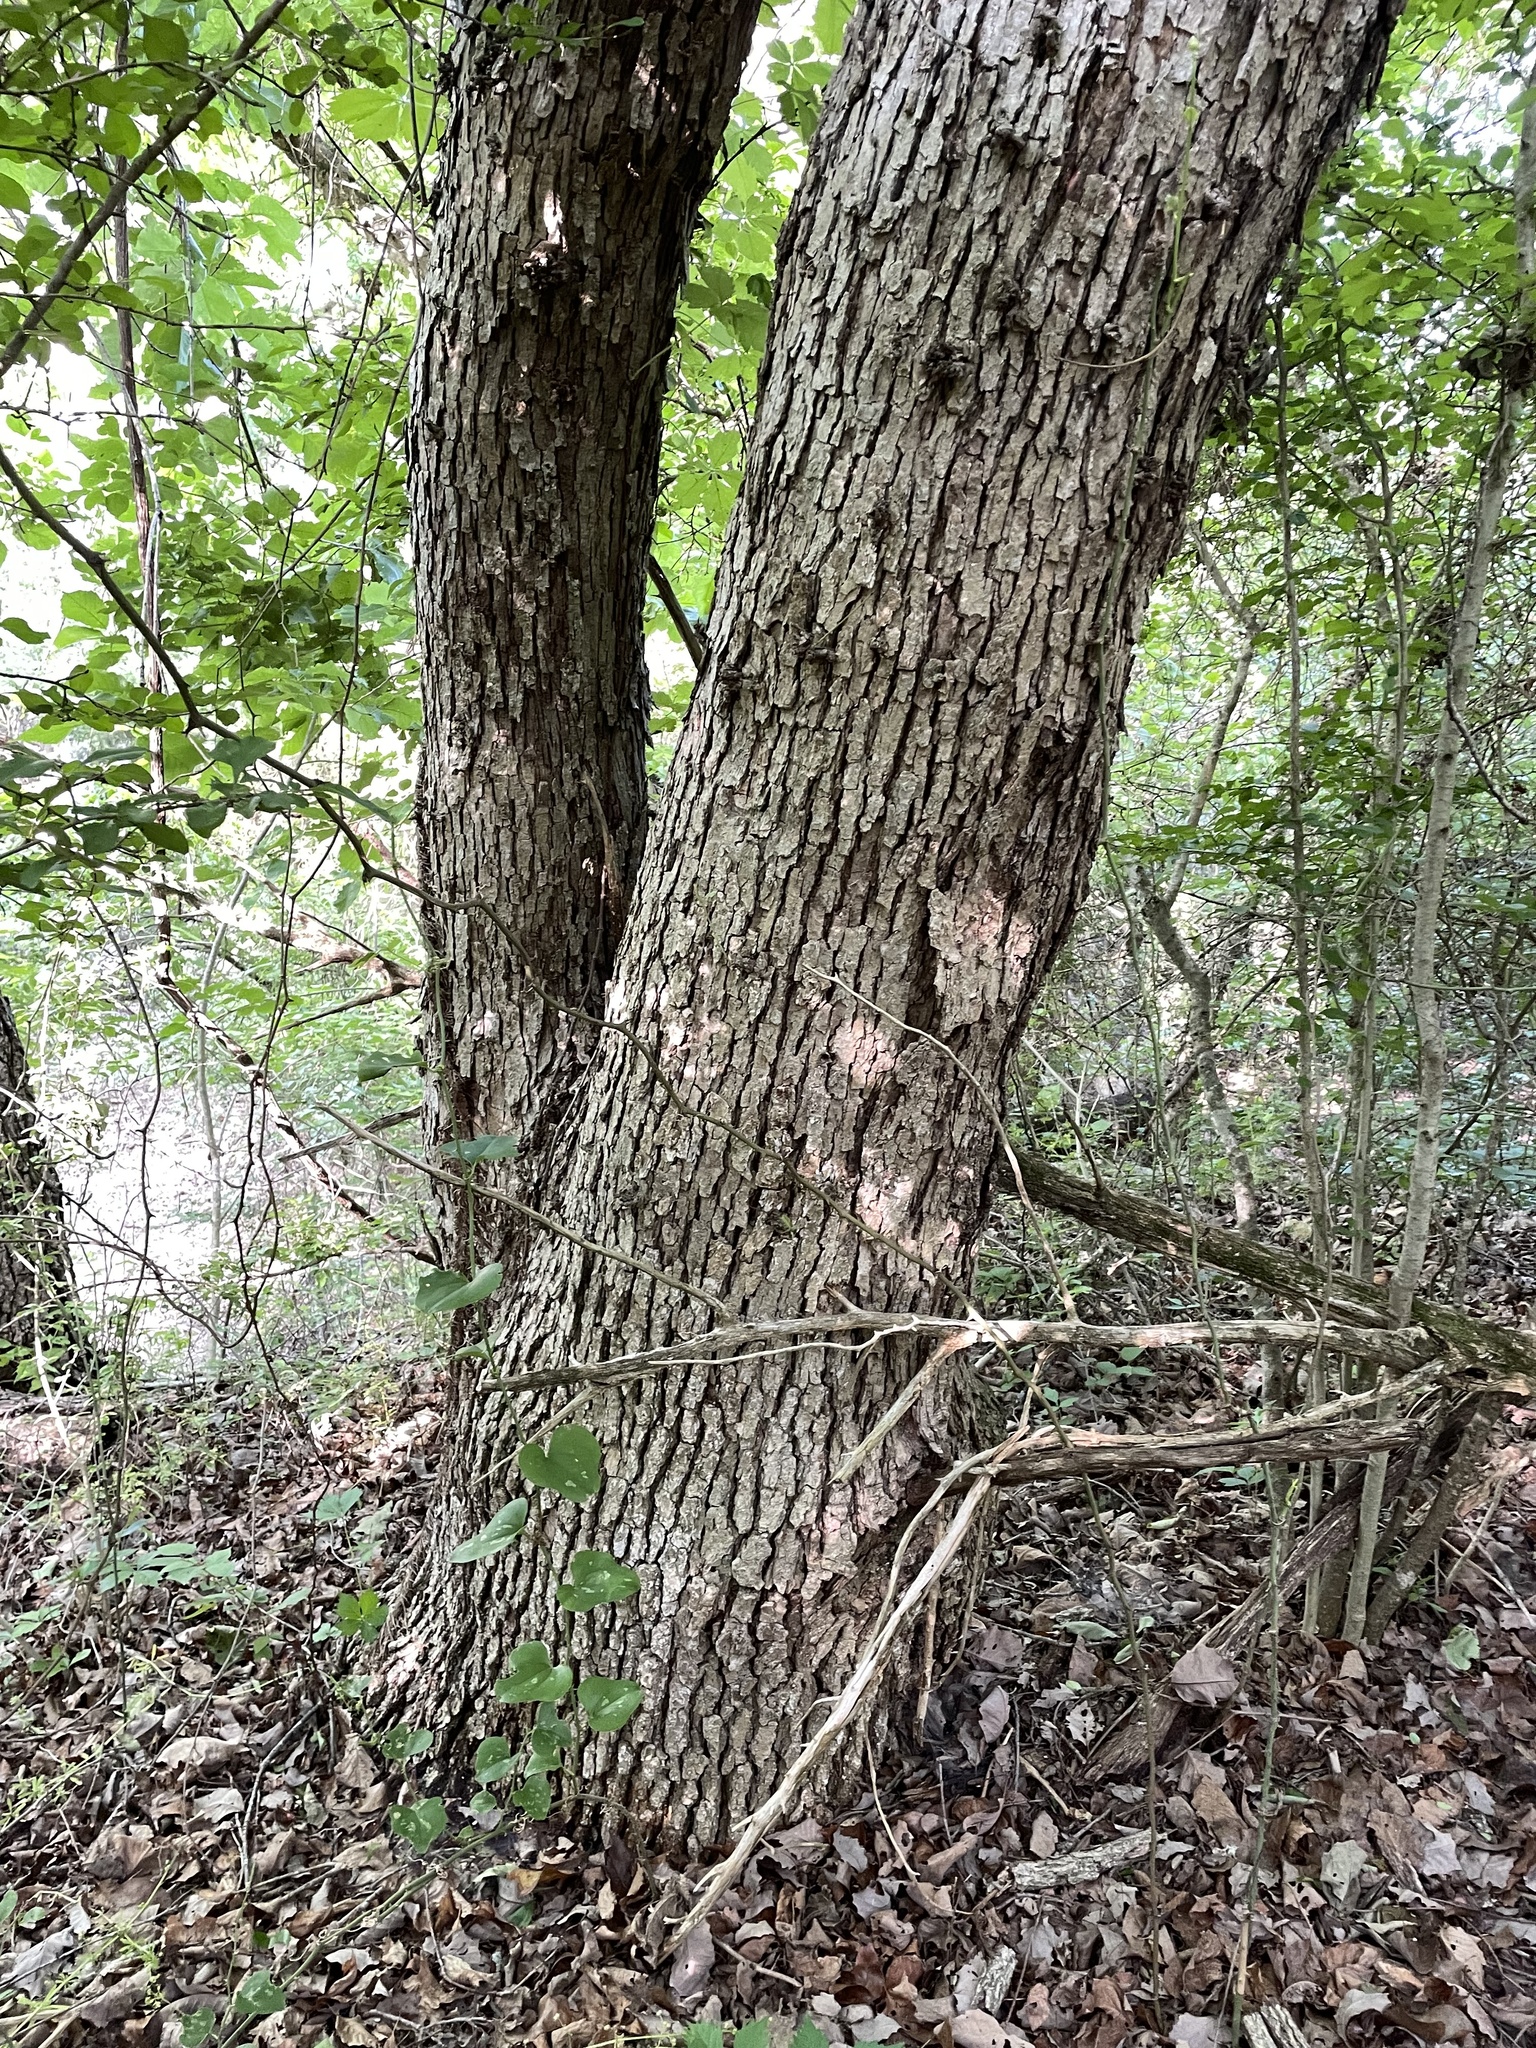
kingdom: Plantae
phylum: Tracheophyta
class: Magnoliopsida
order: Fagales
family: Fagaceae
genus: Quercus
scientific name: Quercus muehlenbergii
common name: Chinkapin oak
